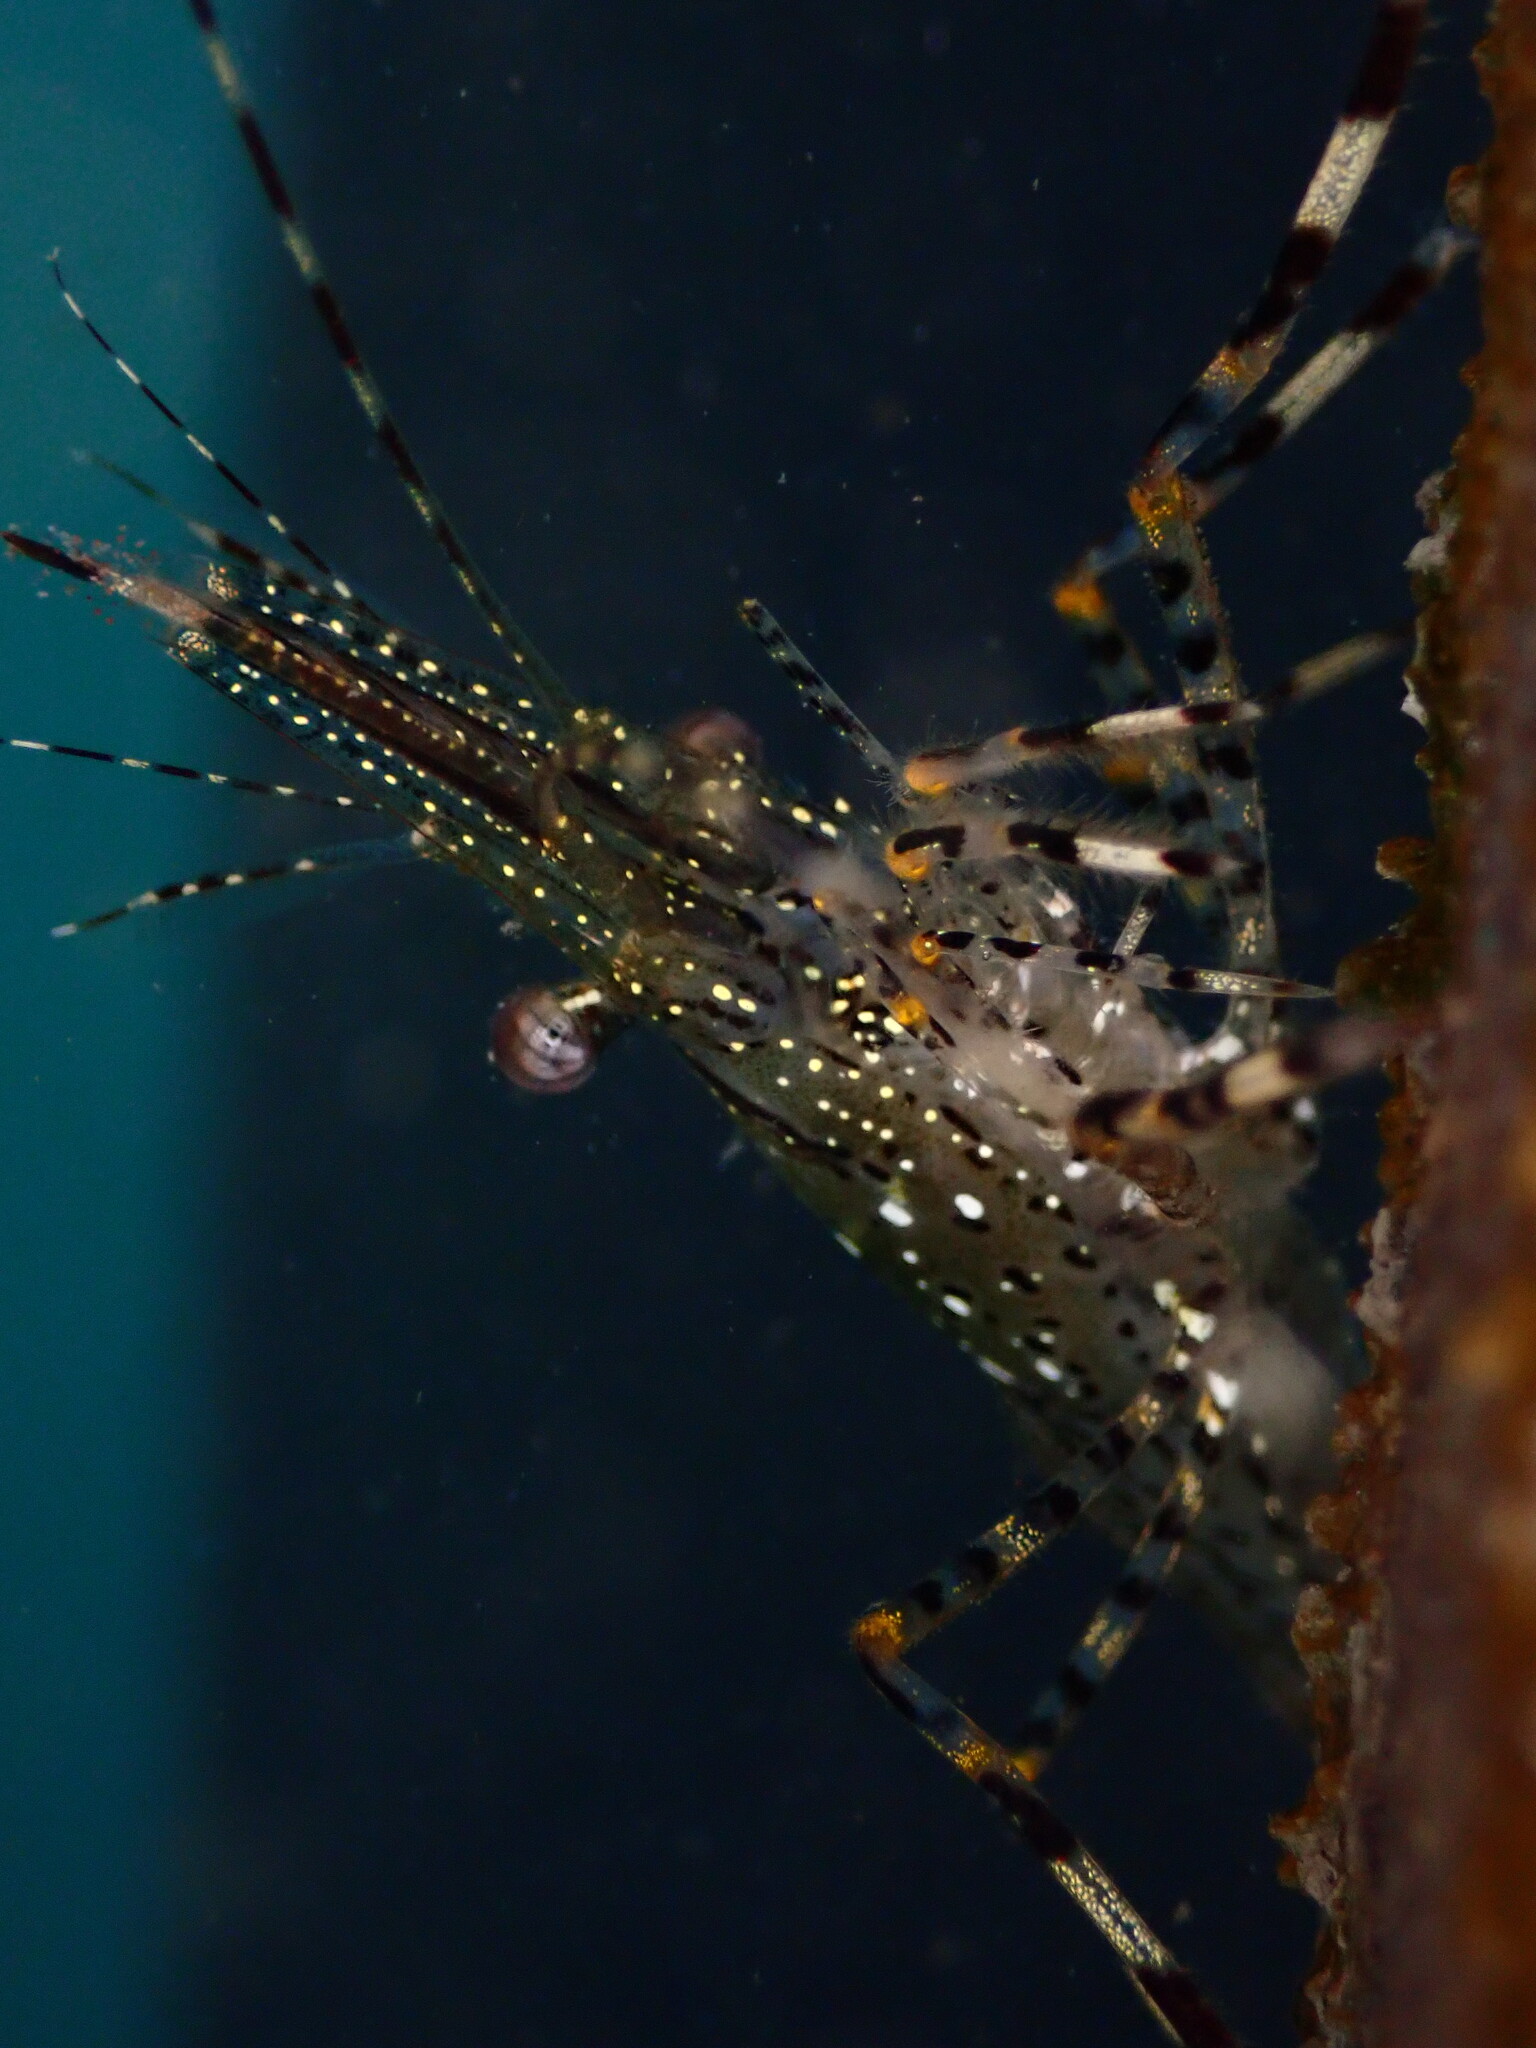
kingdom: Animalia
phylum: Arthropoda
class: Malacostraca
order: Decapoda
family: Pandalidae
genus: Pandalus
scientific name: Pandalus danae
